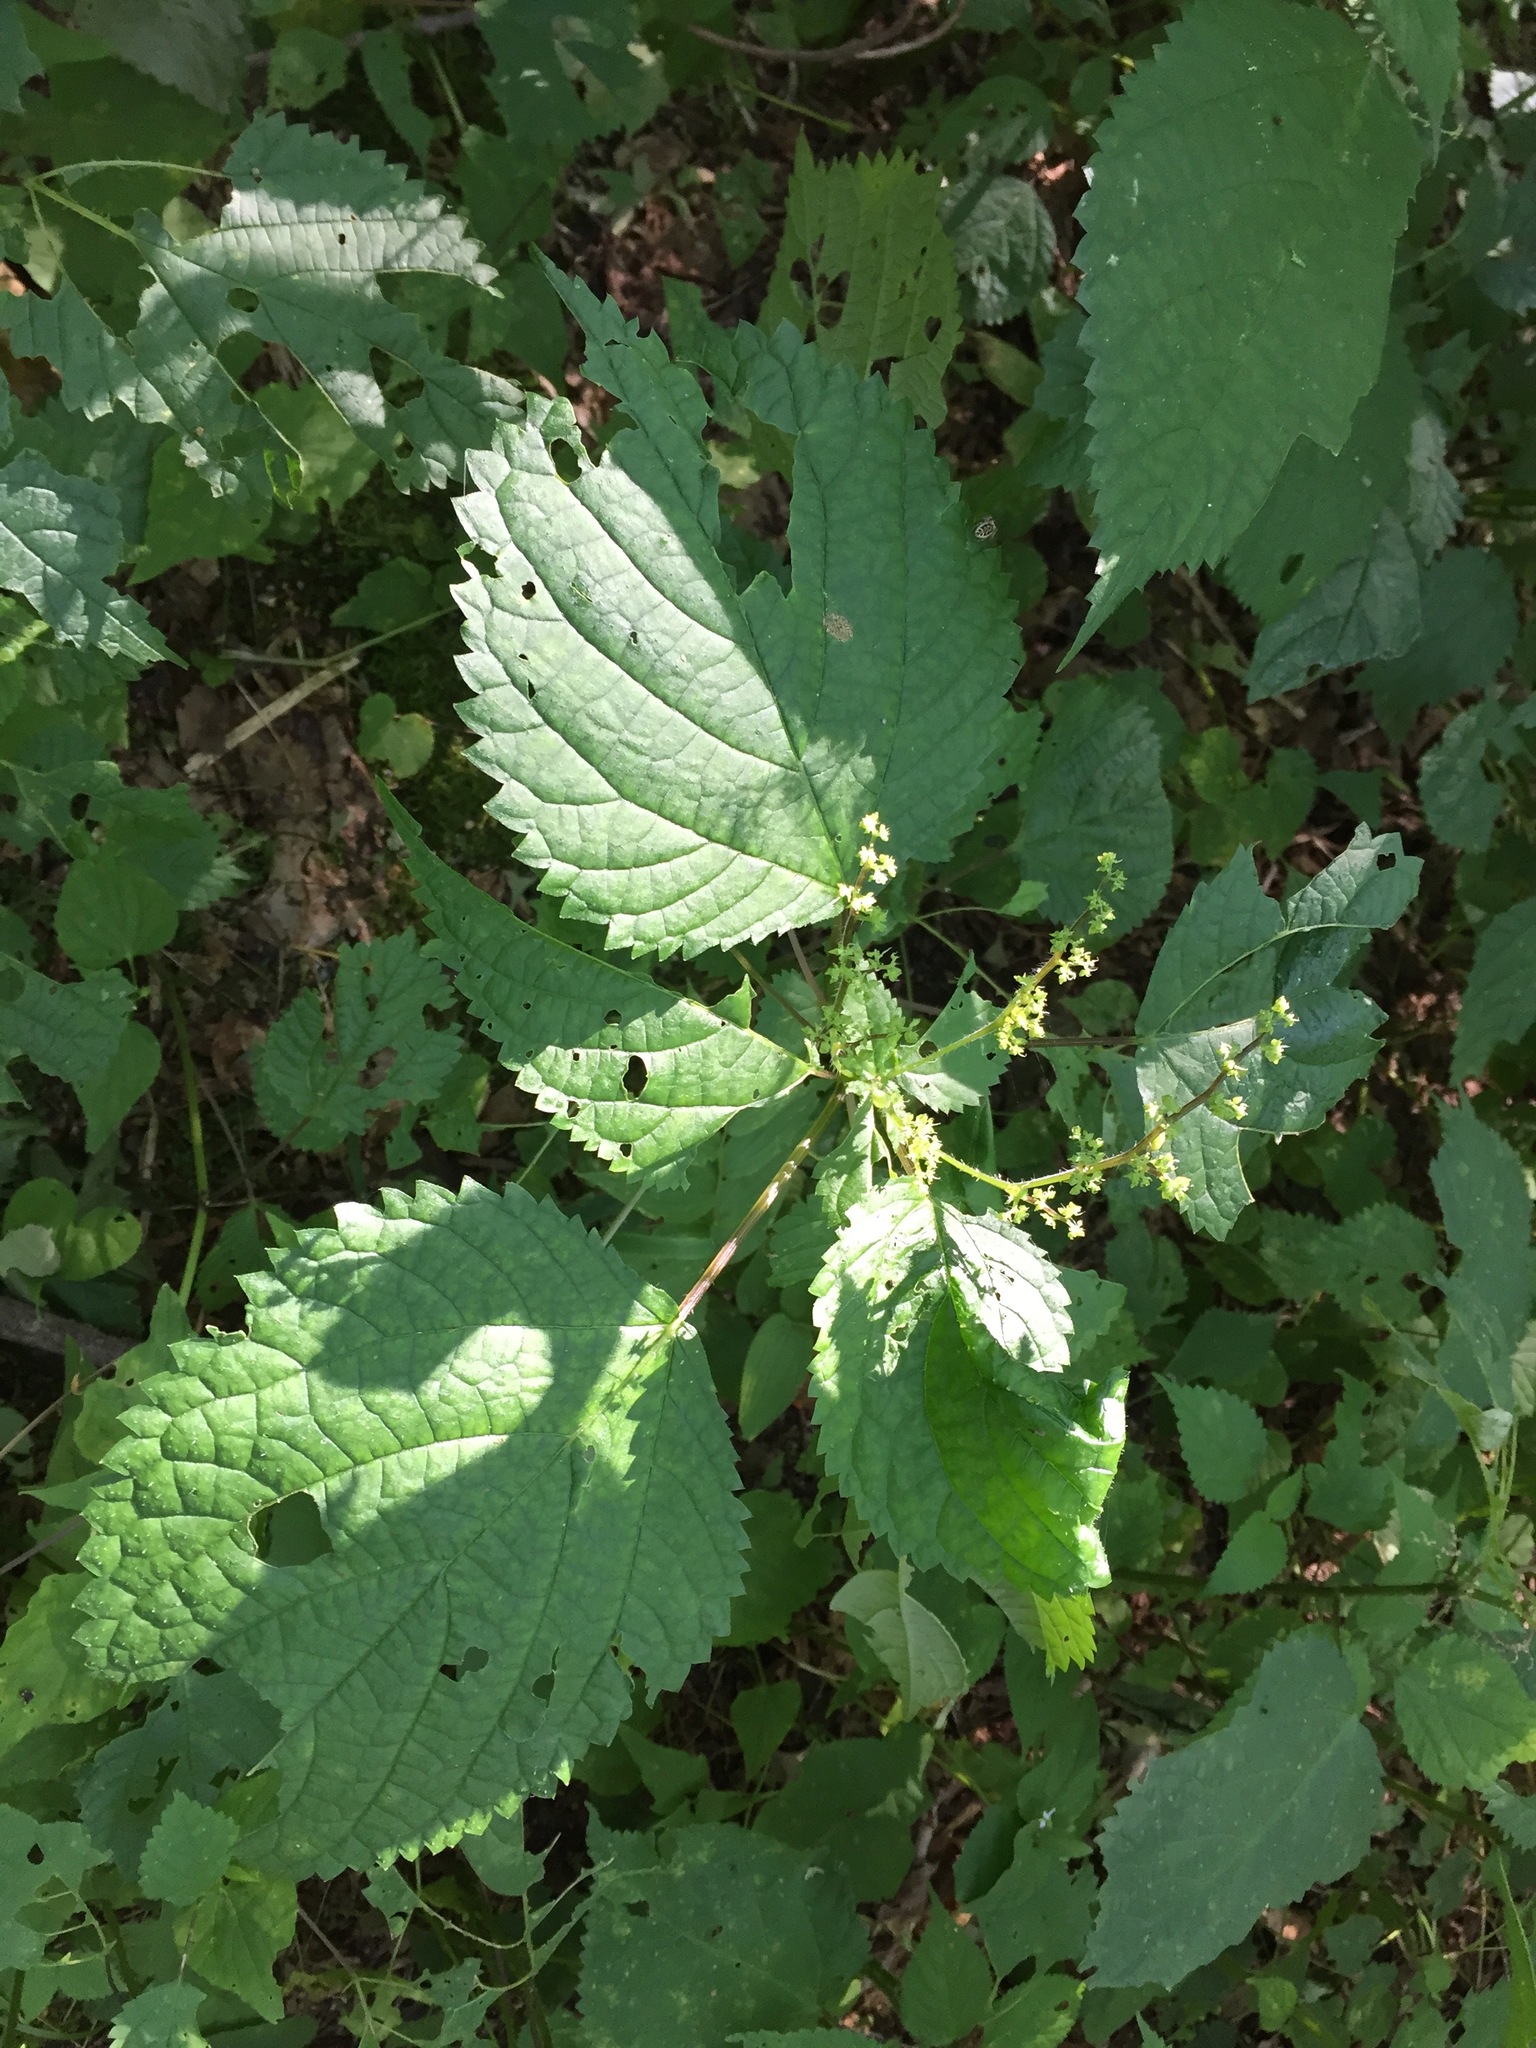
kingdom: Plantae
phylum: Tracheophyta
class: Magnoliopsida
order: Rosales
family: Urticaceae
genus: Laportea
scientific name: Laportea canadensis
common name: Canada nettle
